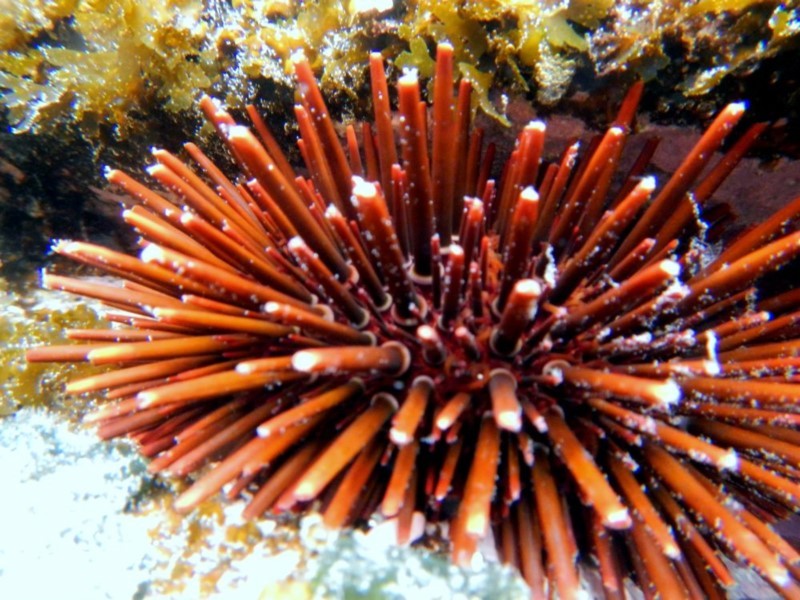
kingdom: Animalia
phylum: Echinodermata
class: Echinoidea
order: Camarodonta
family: Echinometridae
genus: Heliocidaris
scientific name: Heliocidaris tuberculata
